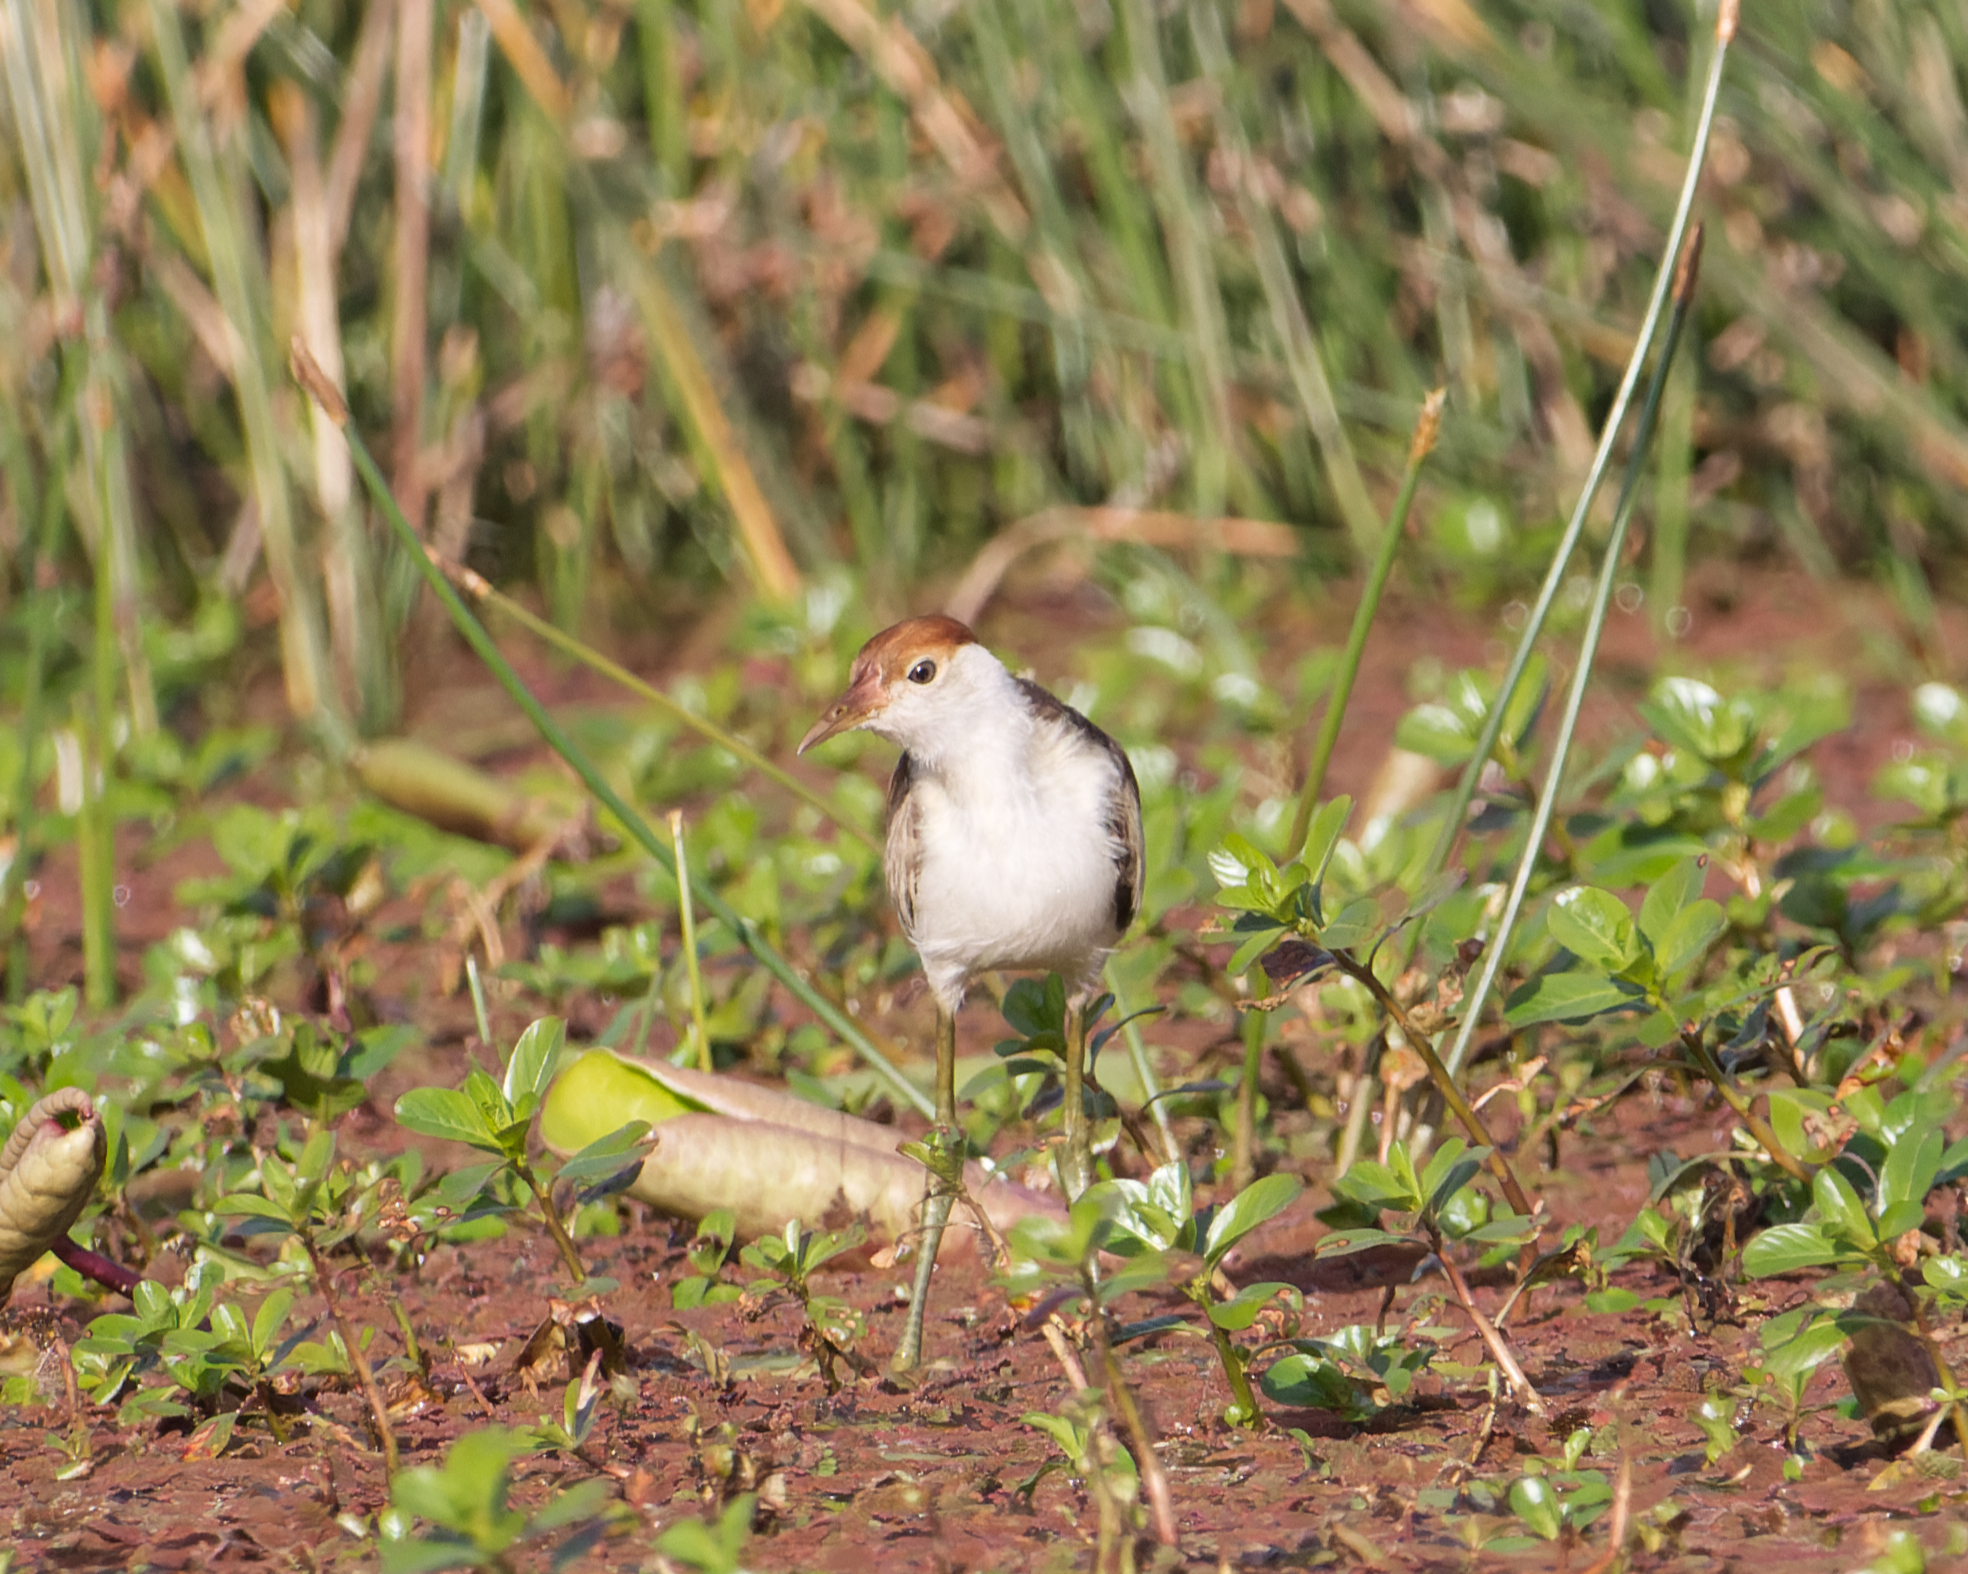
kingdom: Animalia
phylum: Chordata
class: Aves
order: Charadriiformes
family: Jacanidae
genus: Irediparra
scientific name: Irediparra gallinacea
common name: Comb-crested jacana
